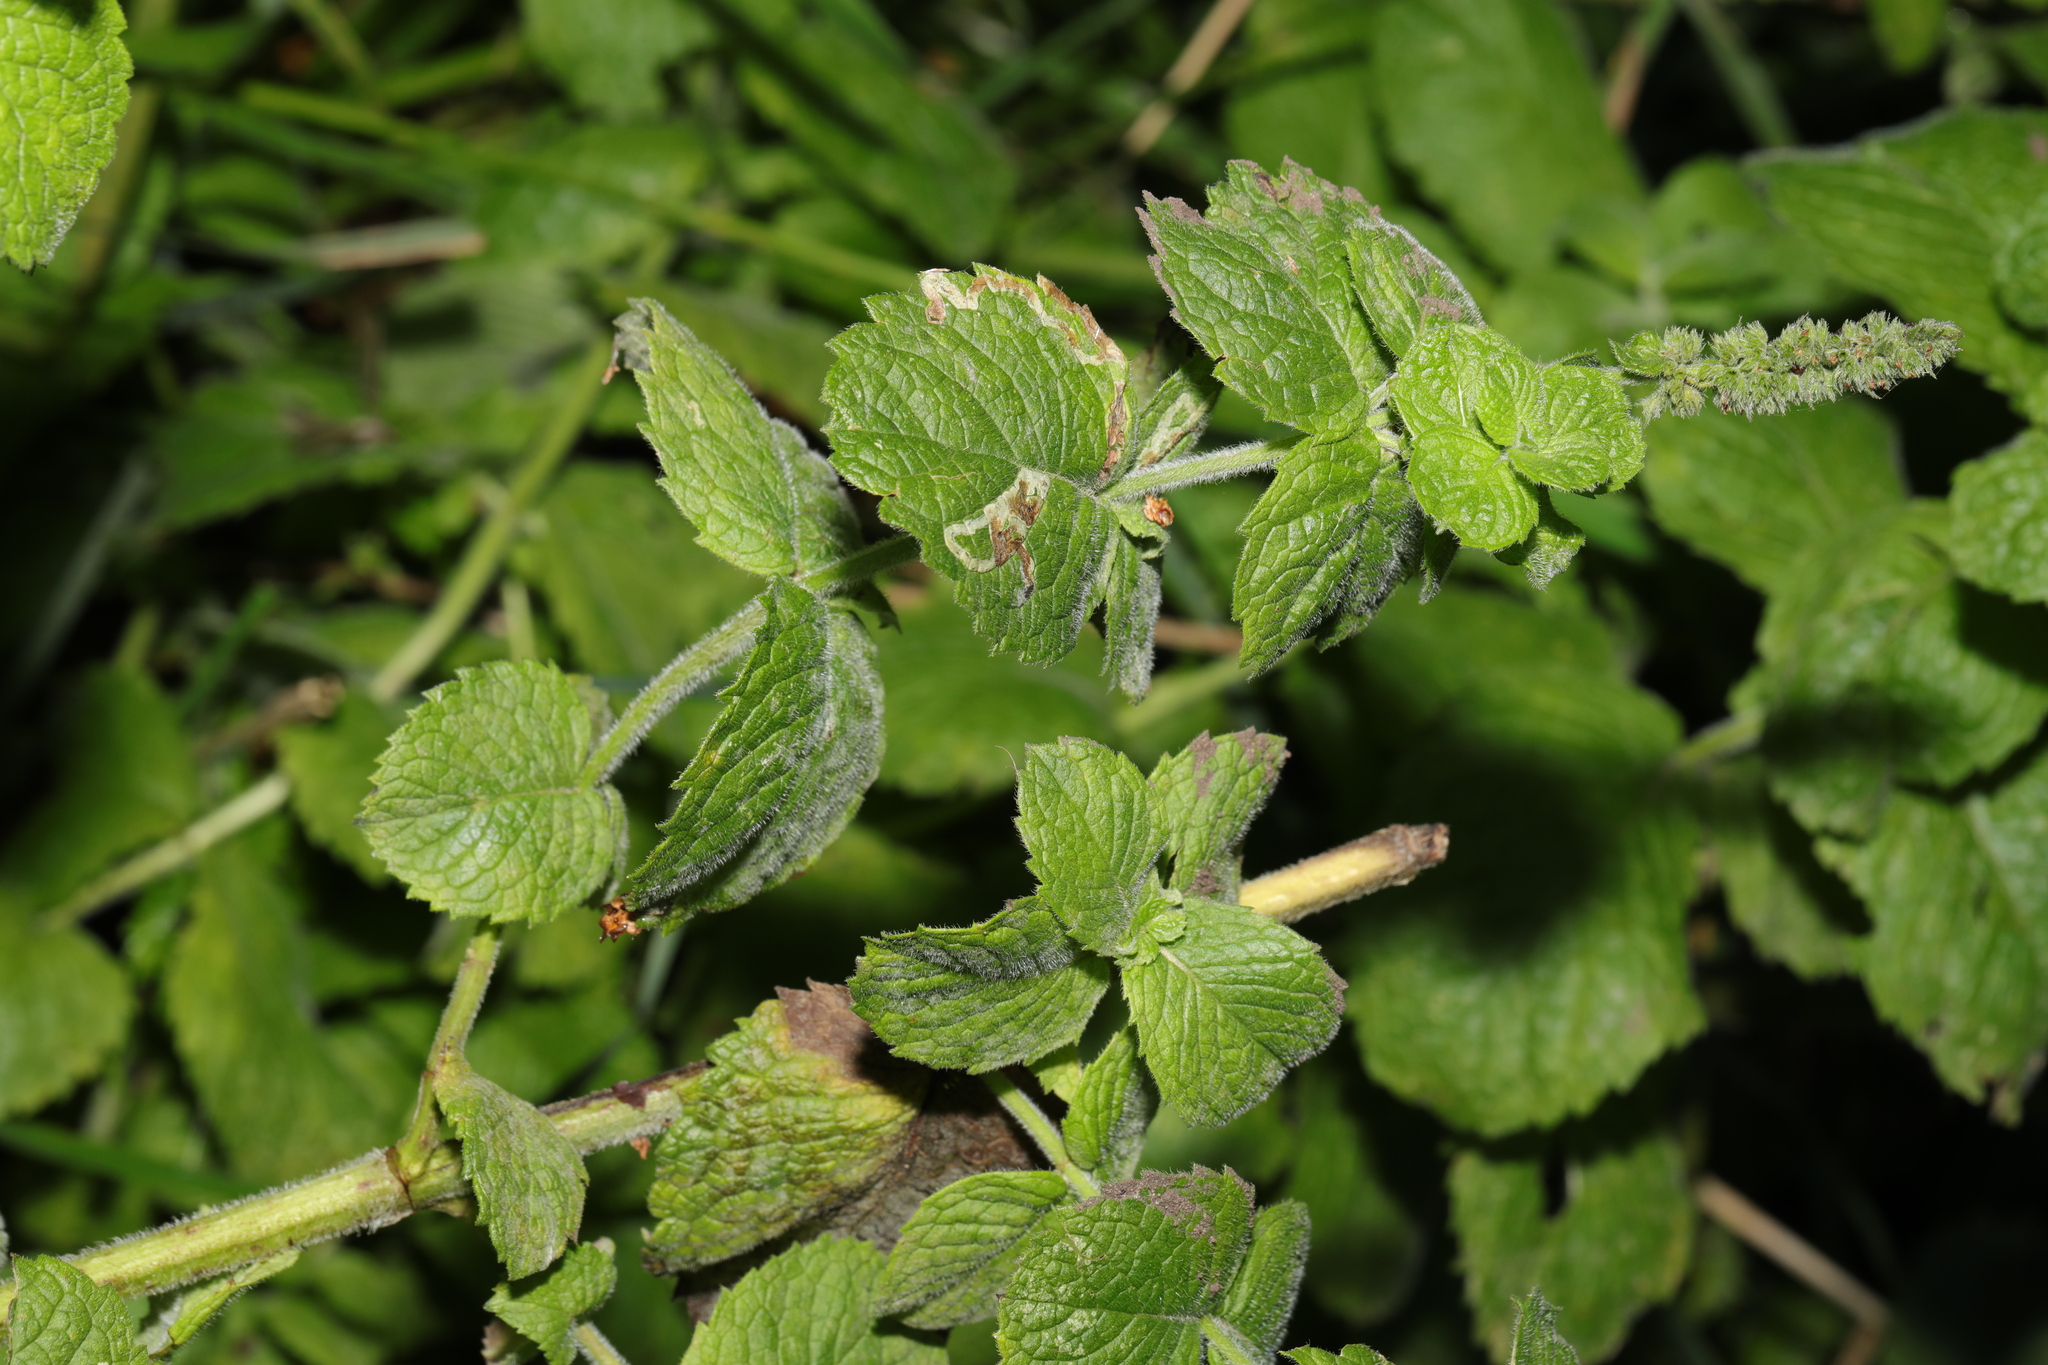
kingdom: Plantae
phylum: Tracheophyta
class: Magnoliopsida
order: Lamiales
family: Lamiaceae
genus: Mentha
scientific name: Mentha villosa
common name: Apple mint
